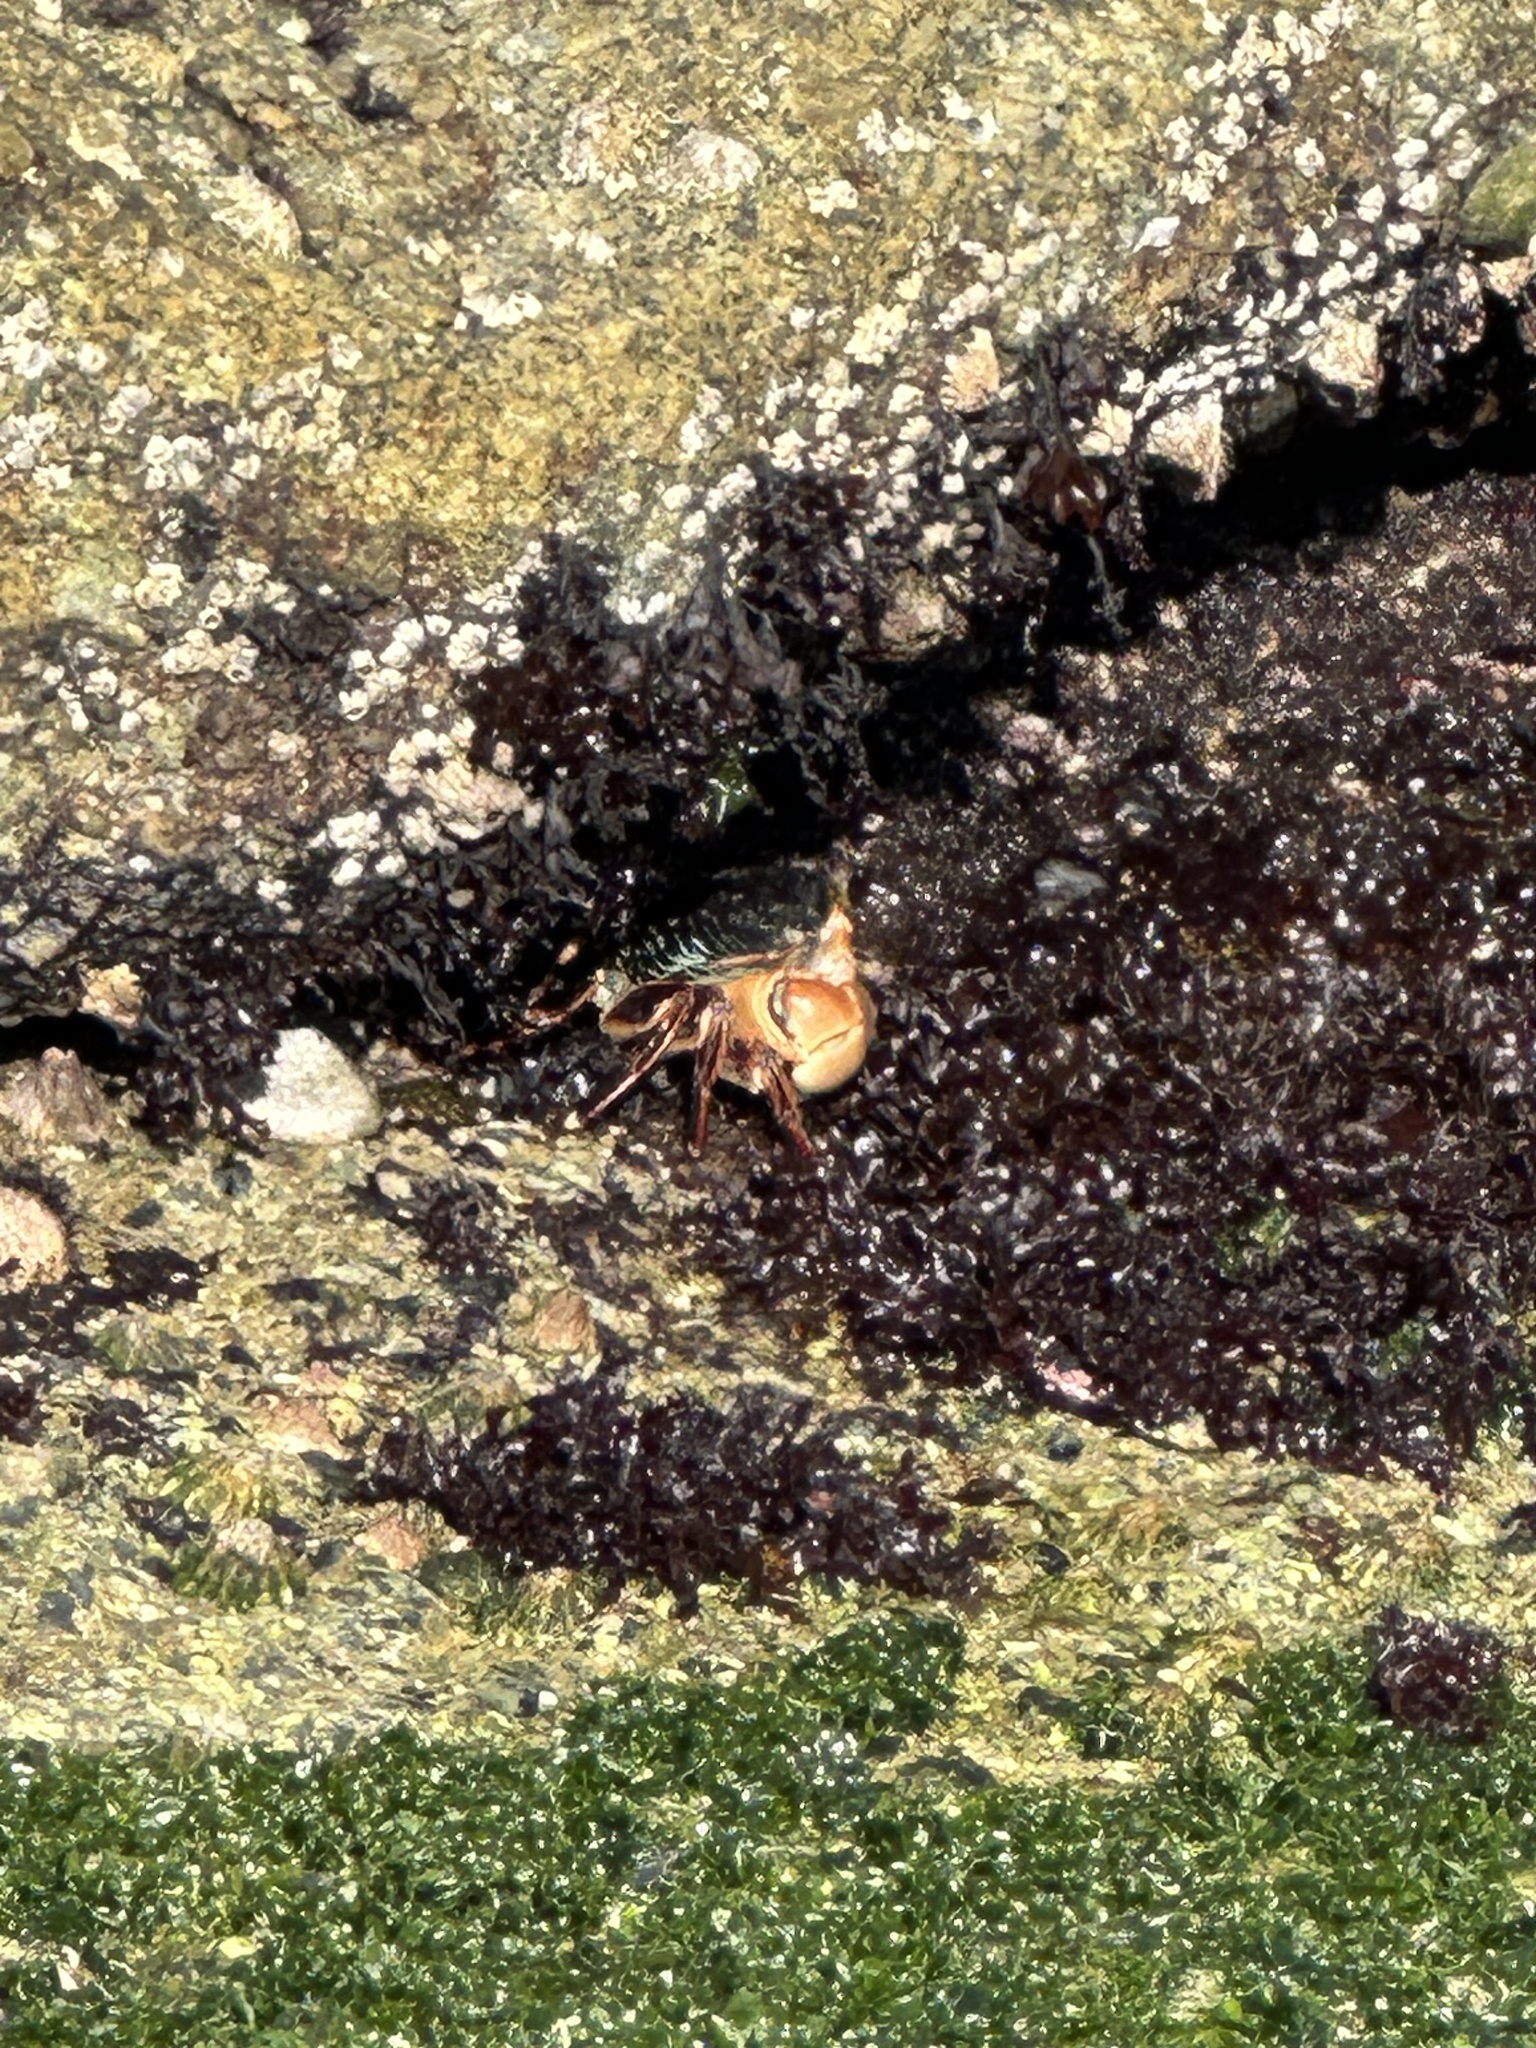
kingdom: Animalia
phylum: Arthropoda
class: Malacostraca
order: Decapoda
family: Grapsidae
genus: Pachygrapsus
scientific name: Pachygrapsus crassipes
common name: Striped shore crab
